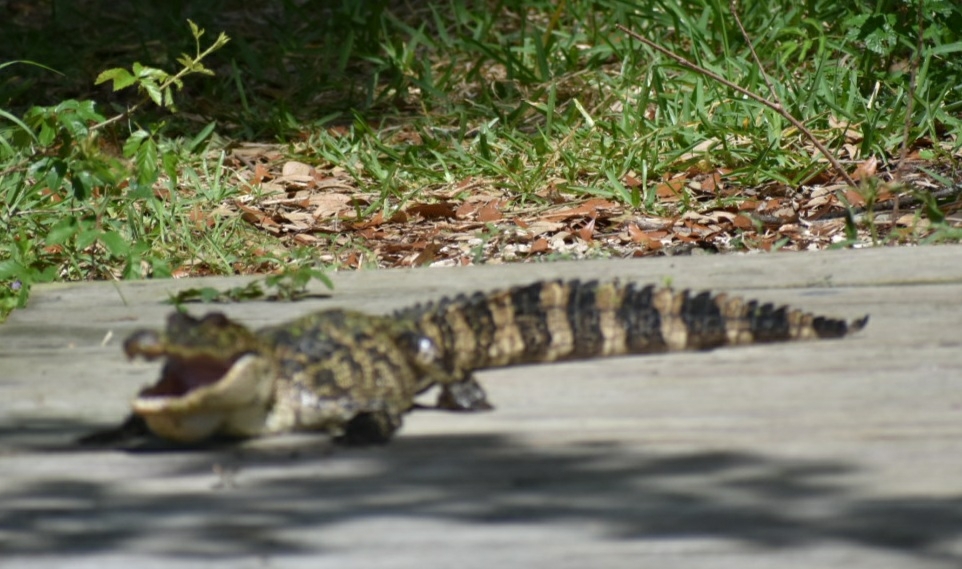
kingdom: Animalia
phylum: Chordata
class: Crocodylia
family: Alligatoridae
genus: Alligator
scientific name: Alligator mississippiensis
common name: American alligator
